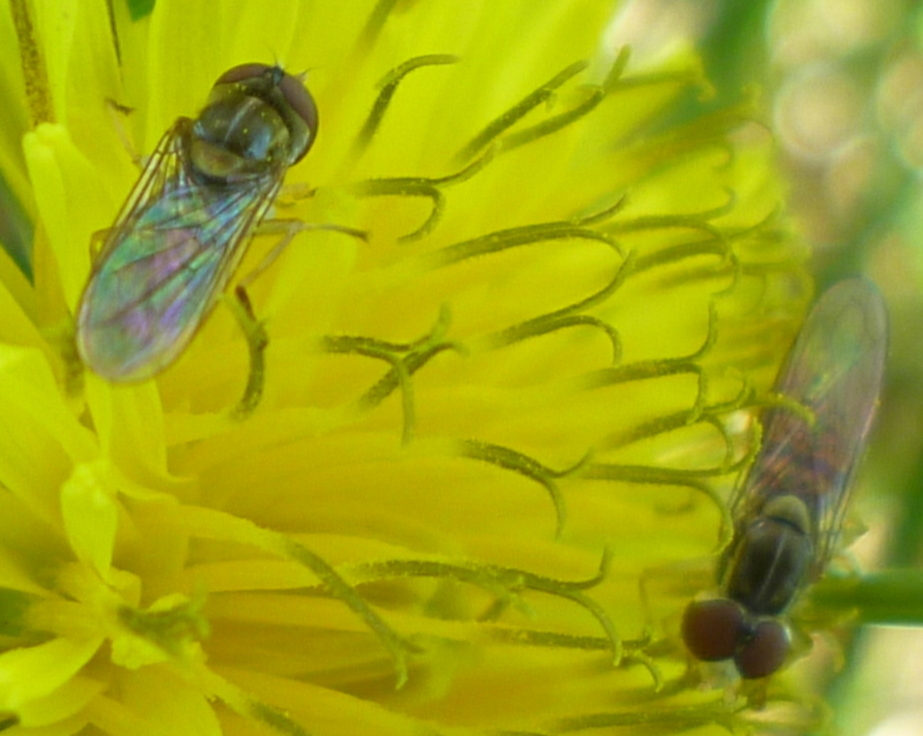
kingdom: Animalia
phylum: Arthropoda
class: Insecta
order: Diptera
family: Syrphidae
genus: Toxomerus
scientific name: Toxomerus marginatus
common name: Syrphid fly
